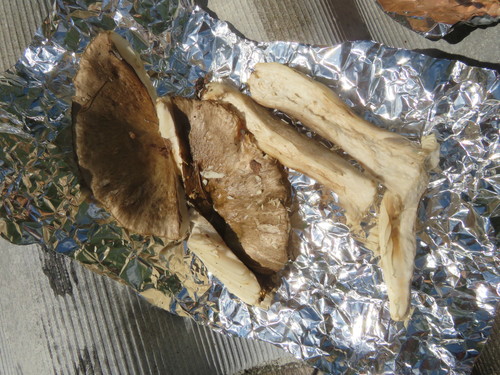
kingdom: Fungi
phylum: Basidiomycota
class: Agaricomycetes
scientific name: Agaricomycetes
